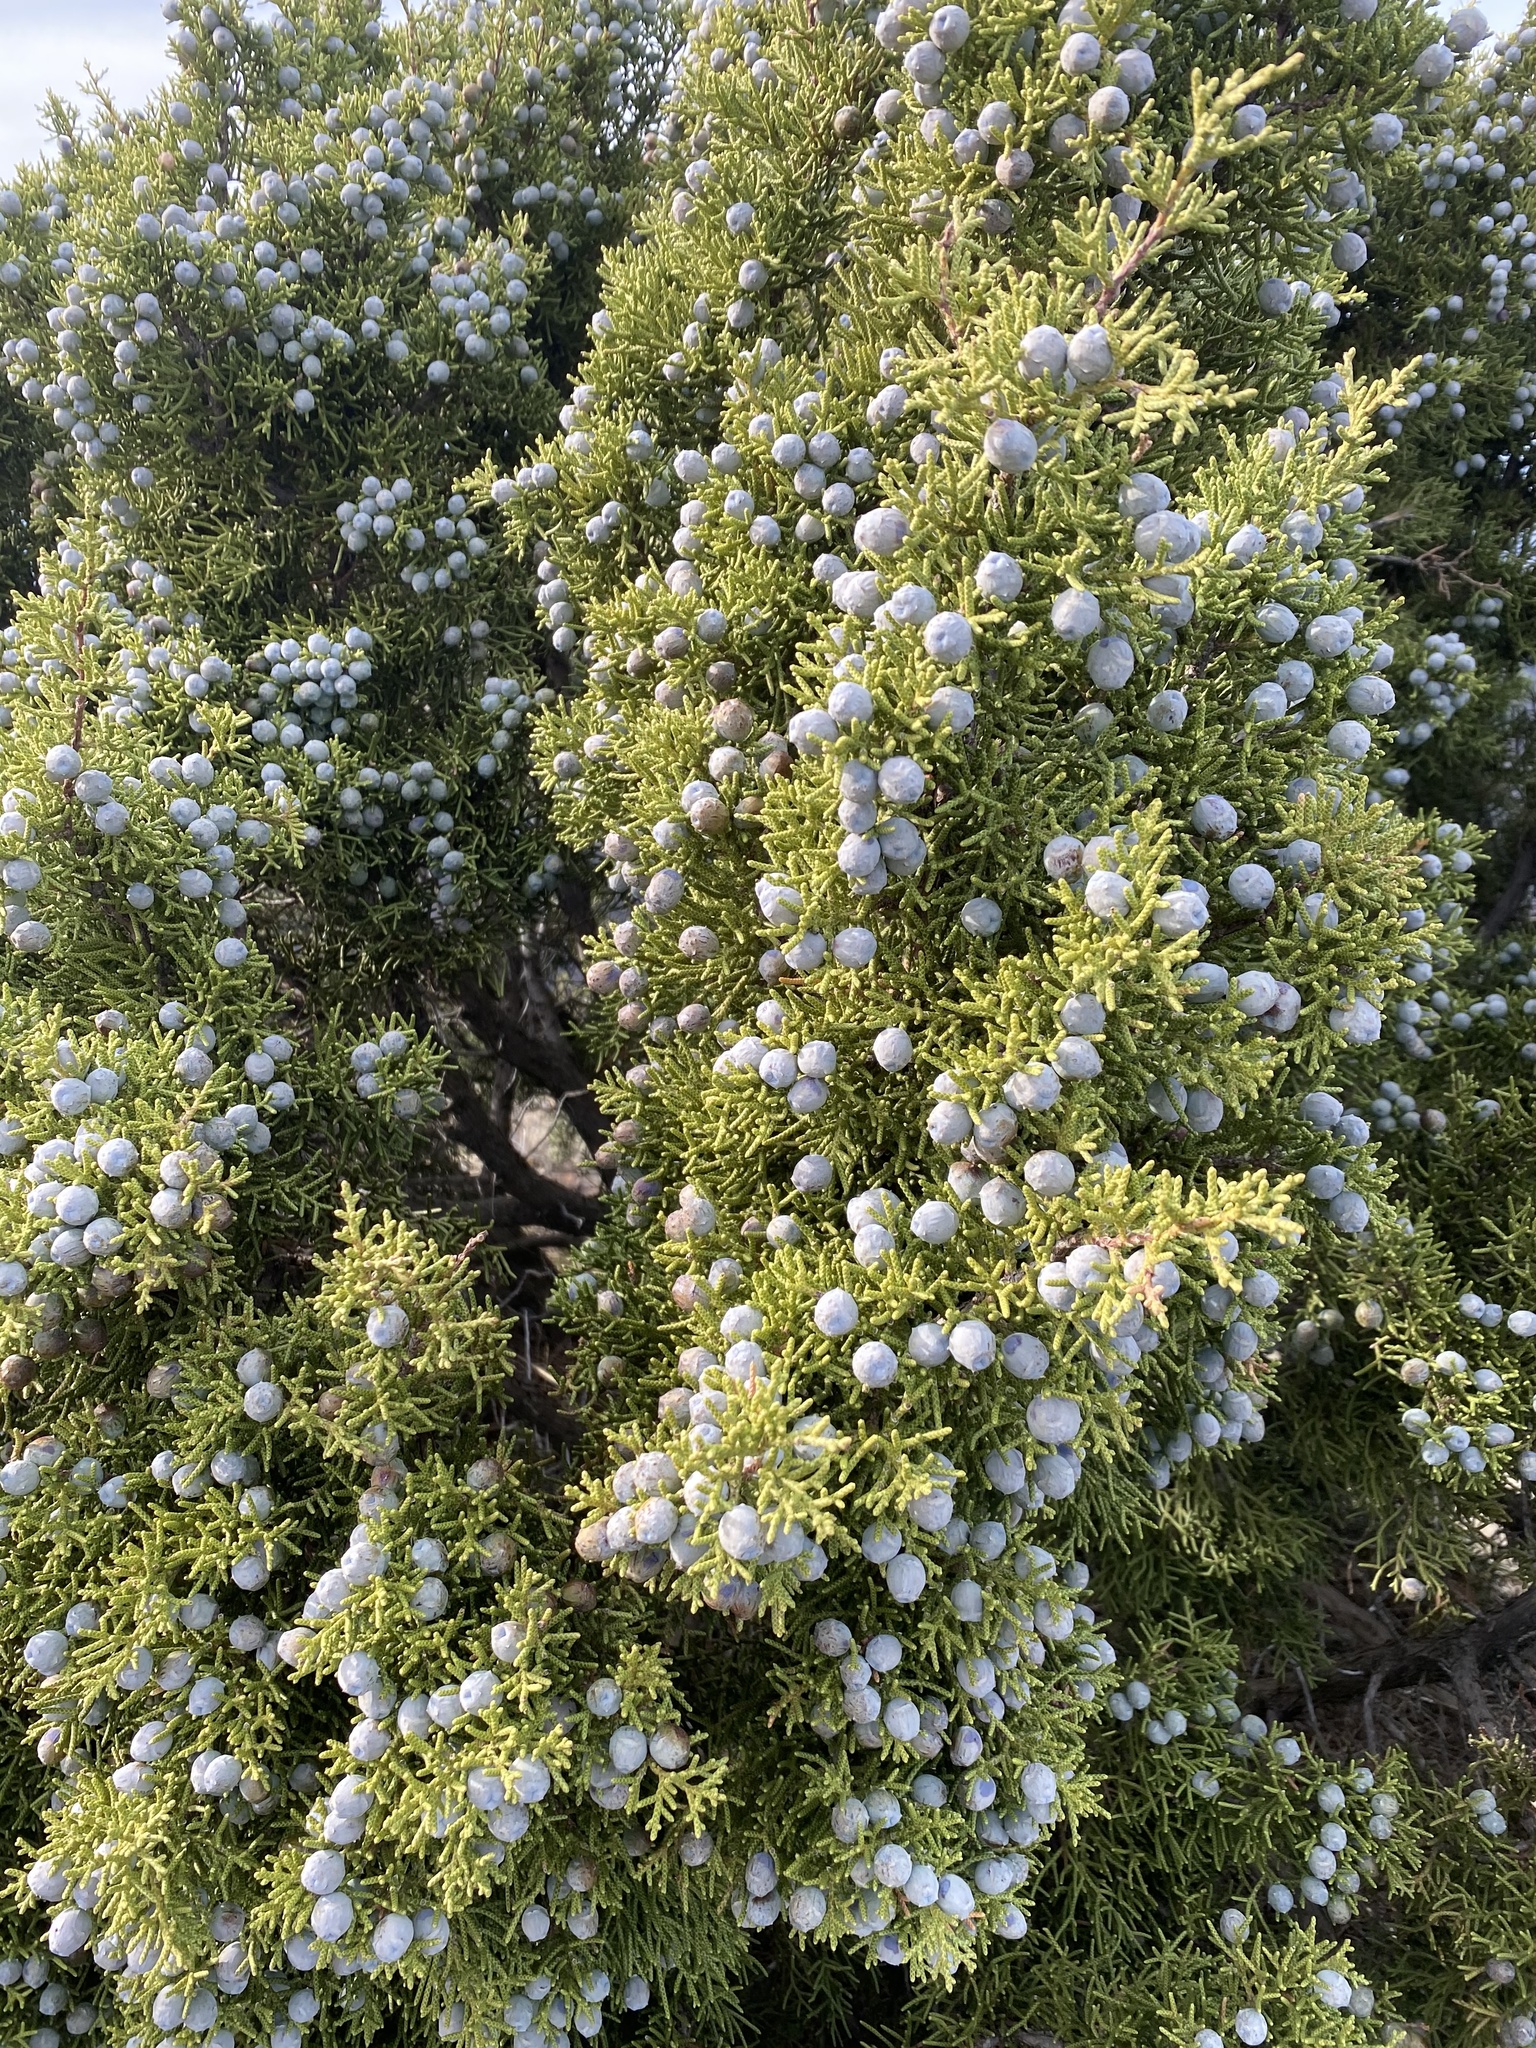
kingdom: Plantae
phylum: Tracheophyta
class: Pinopsida
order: Pinales
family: Cupressaceae
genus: Juniperus
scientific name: Juniperus californica
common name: California juniper
